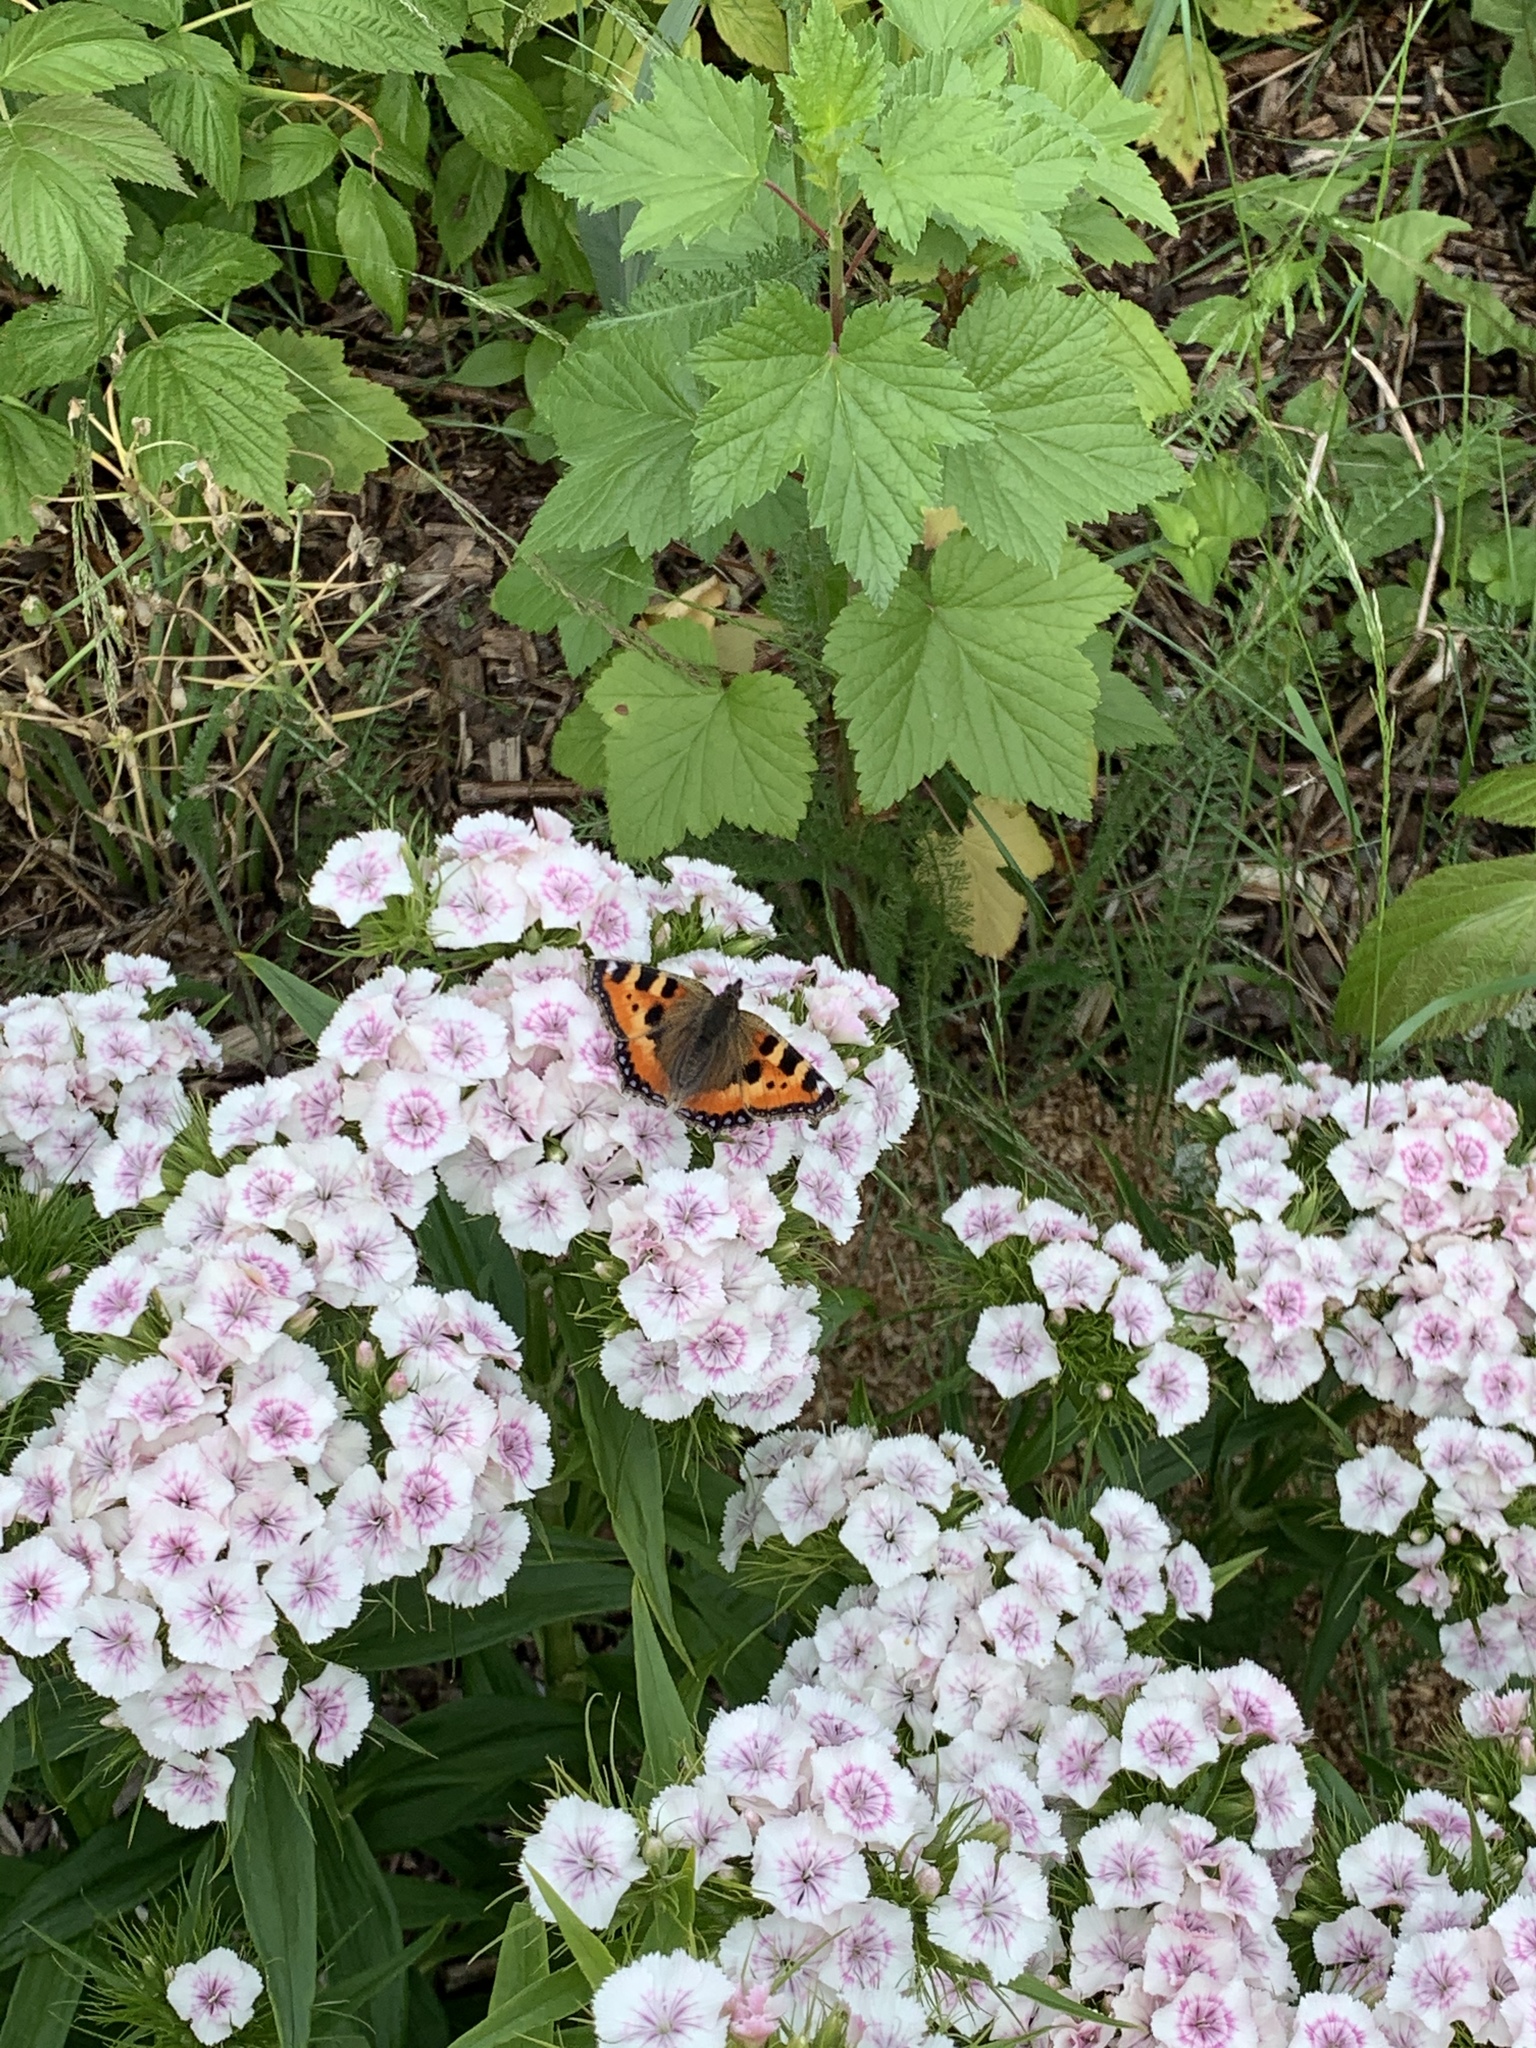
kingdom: Animalia
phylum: Arthropoda
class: Insecta
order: Lepidoptera
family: Nymphalidae
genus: Aglais
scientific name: Aglais urticae
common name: Small tortoiseshell
